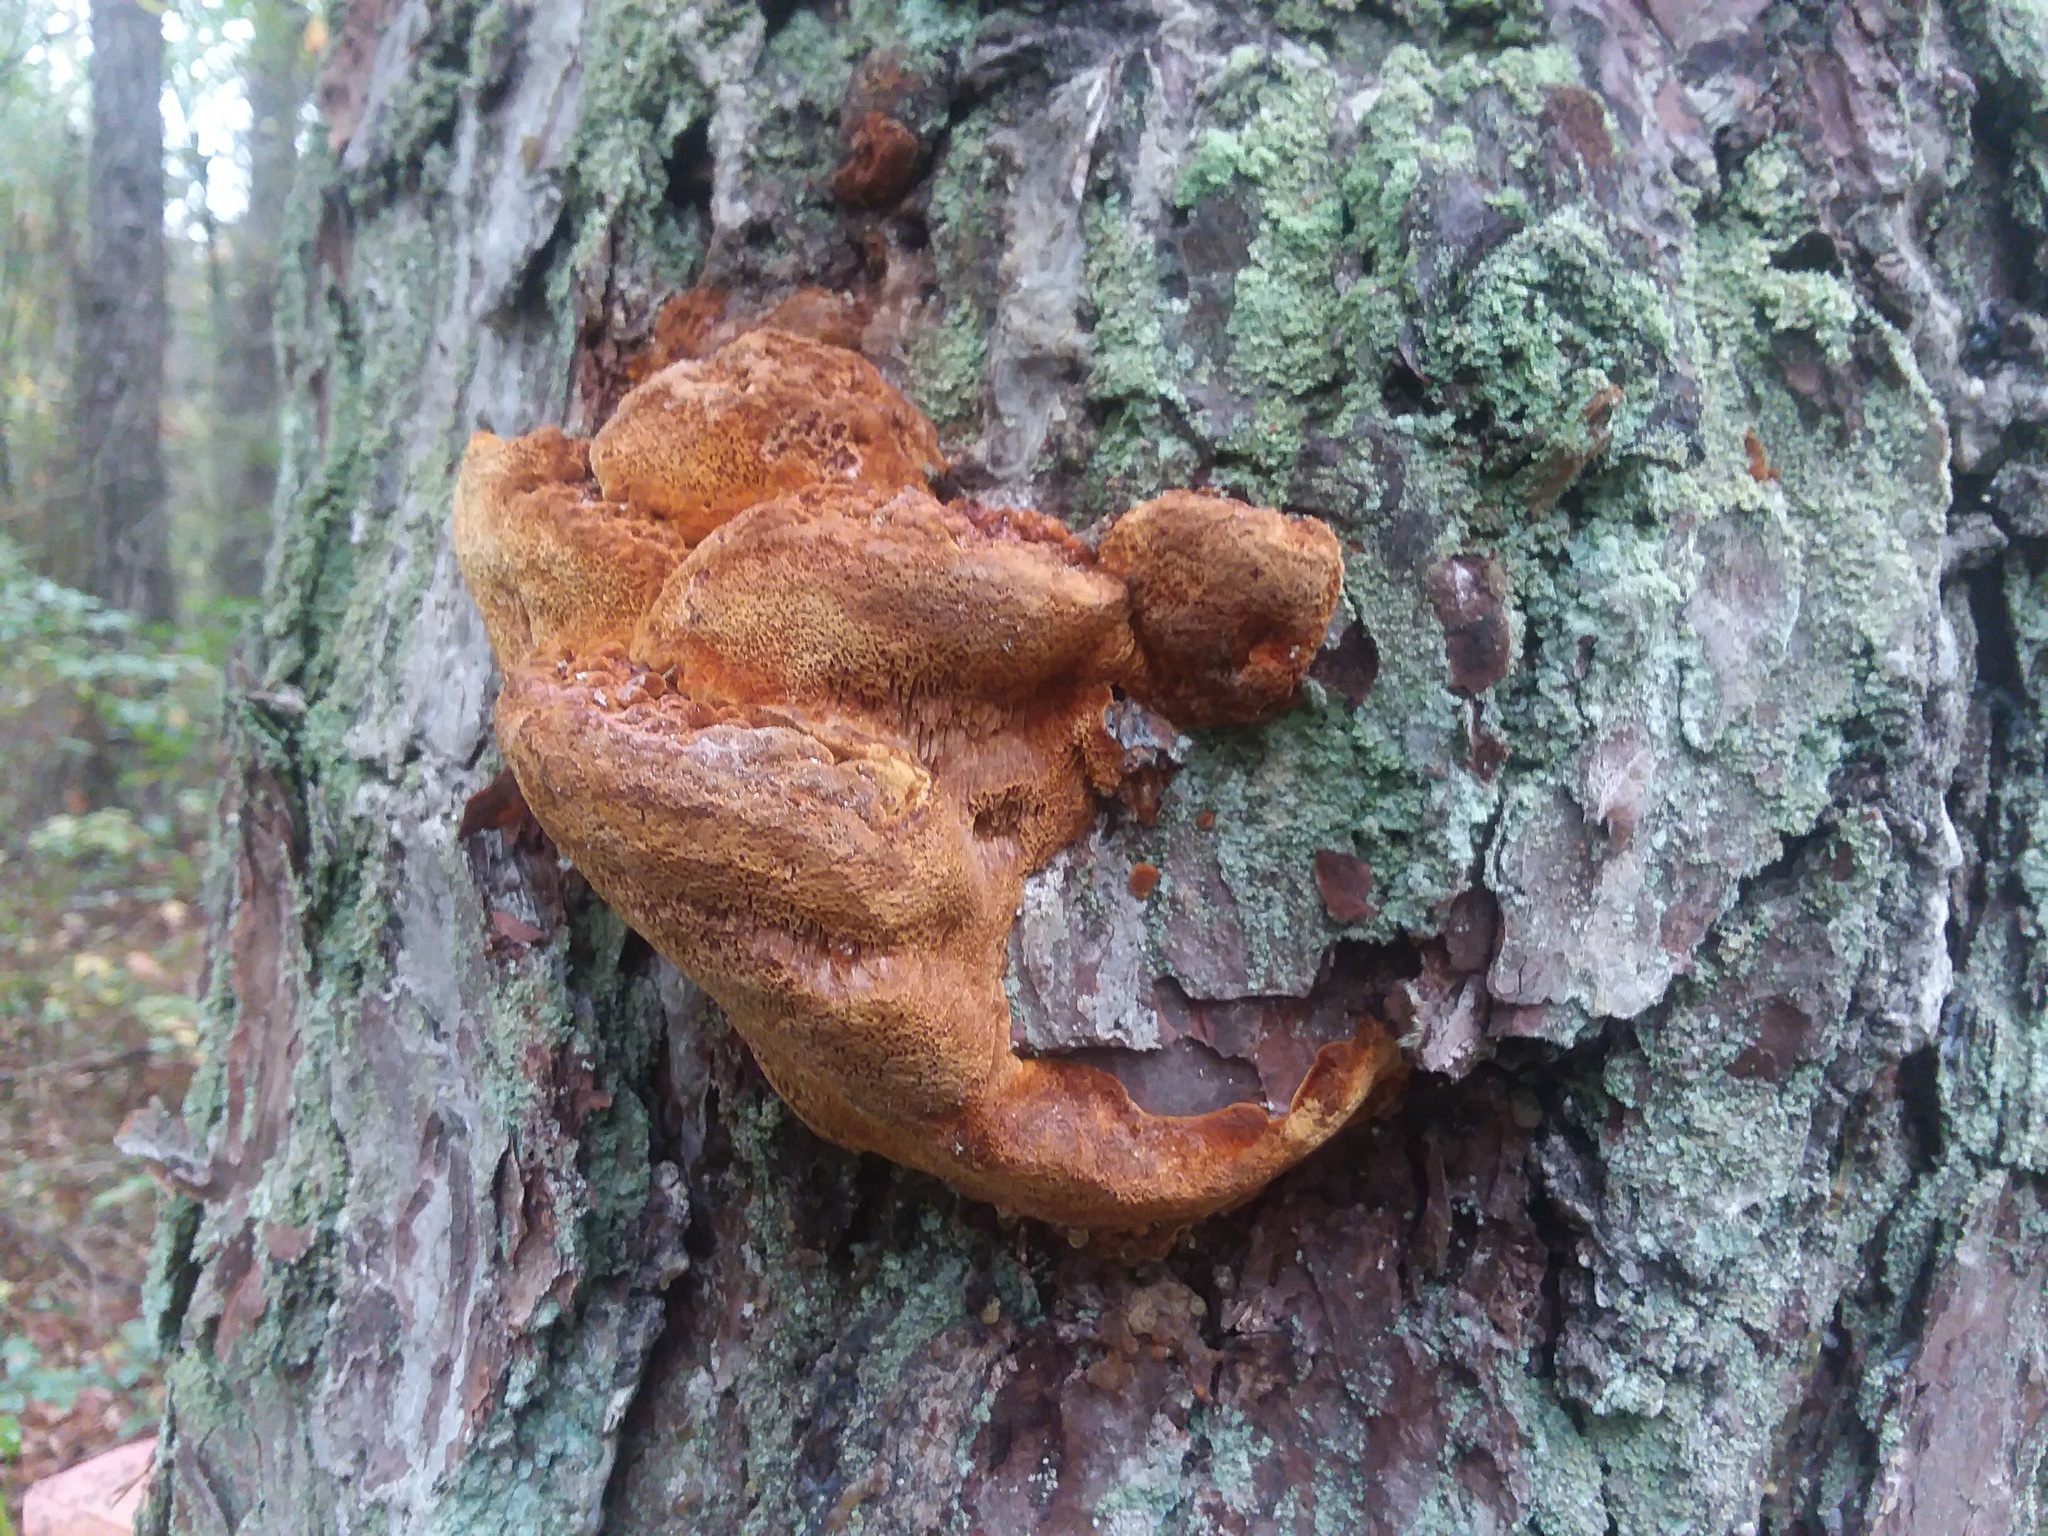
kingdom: Fungi
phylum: Basidiomycota
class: Agaricomycetes
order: Hymenochaetales
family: Hymenochaetaceae
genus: Phellinus
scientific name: Phellinus piceinus
